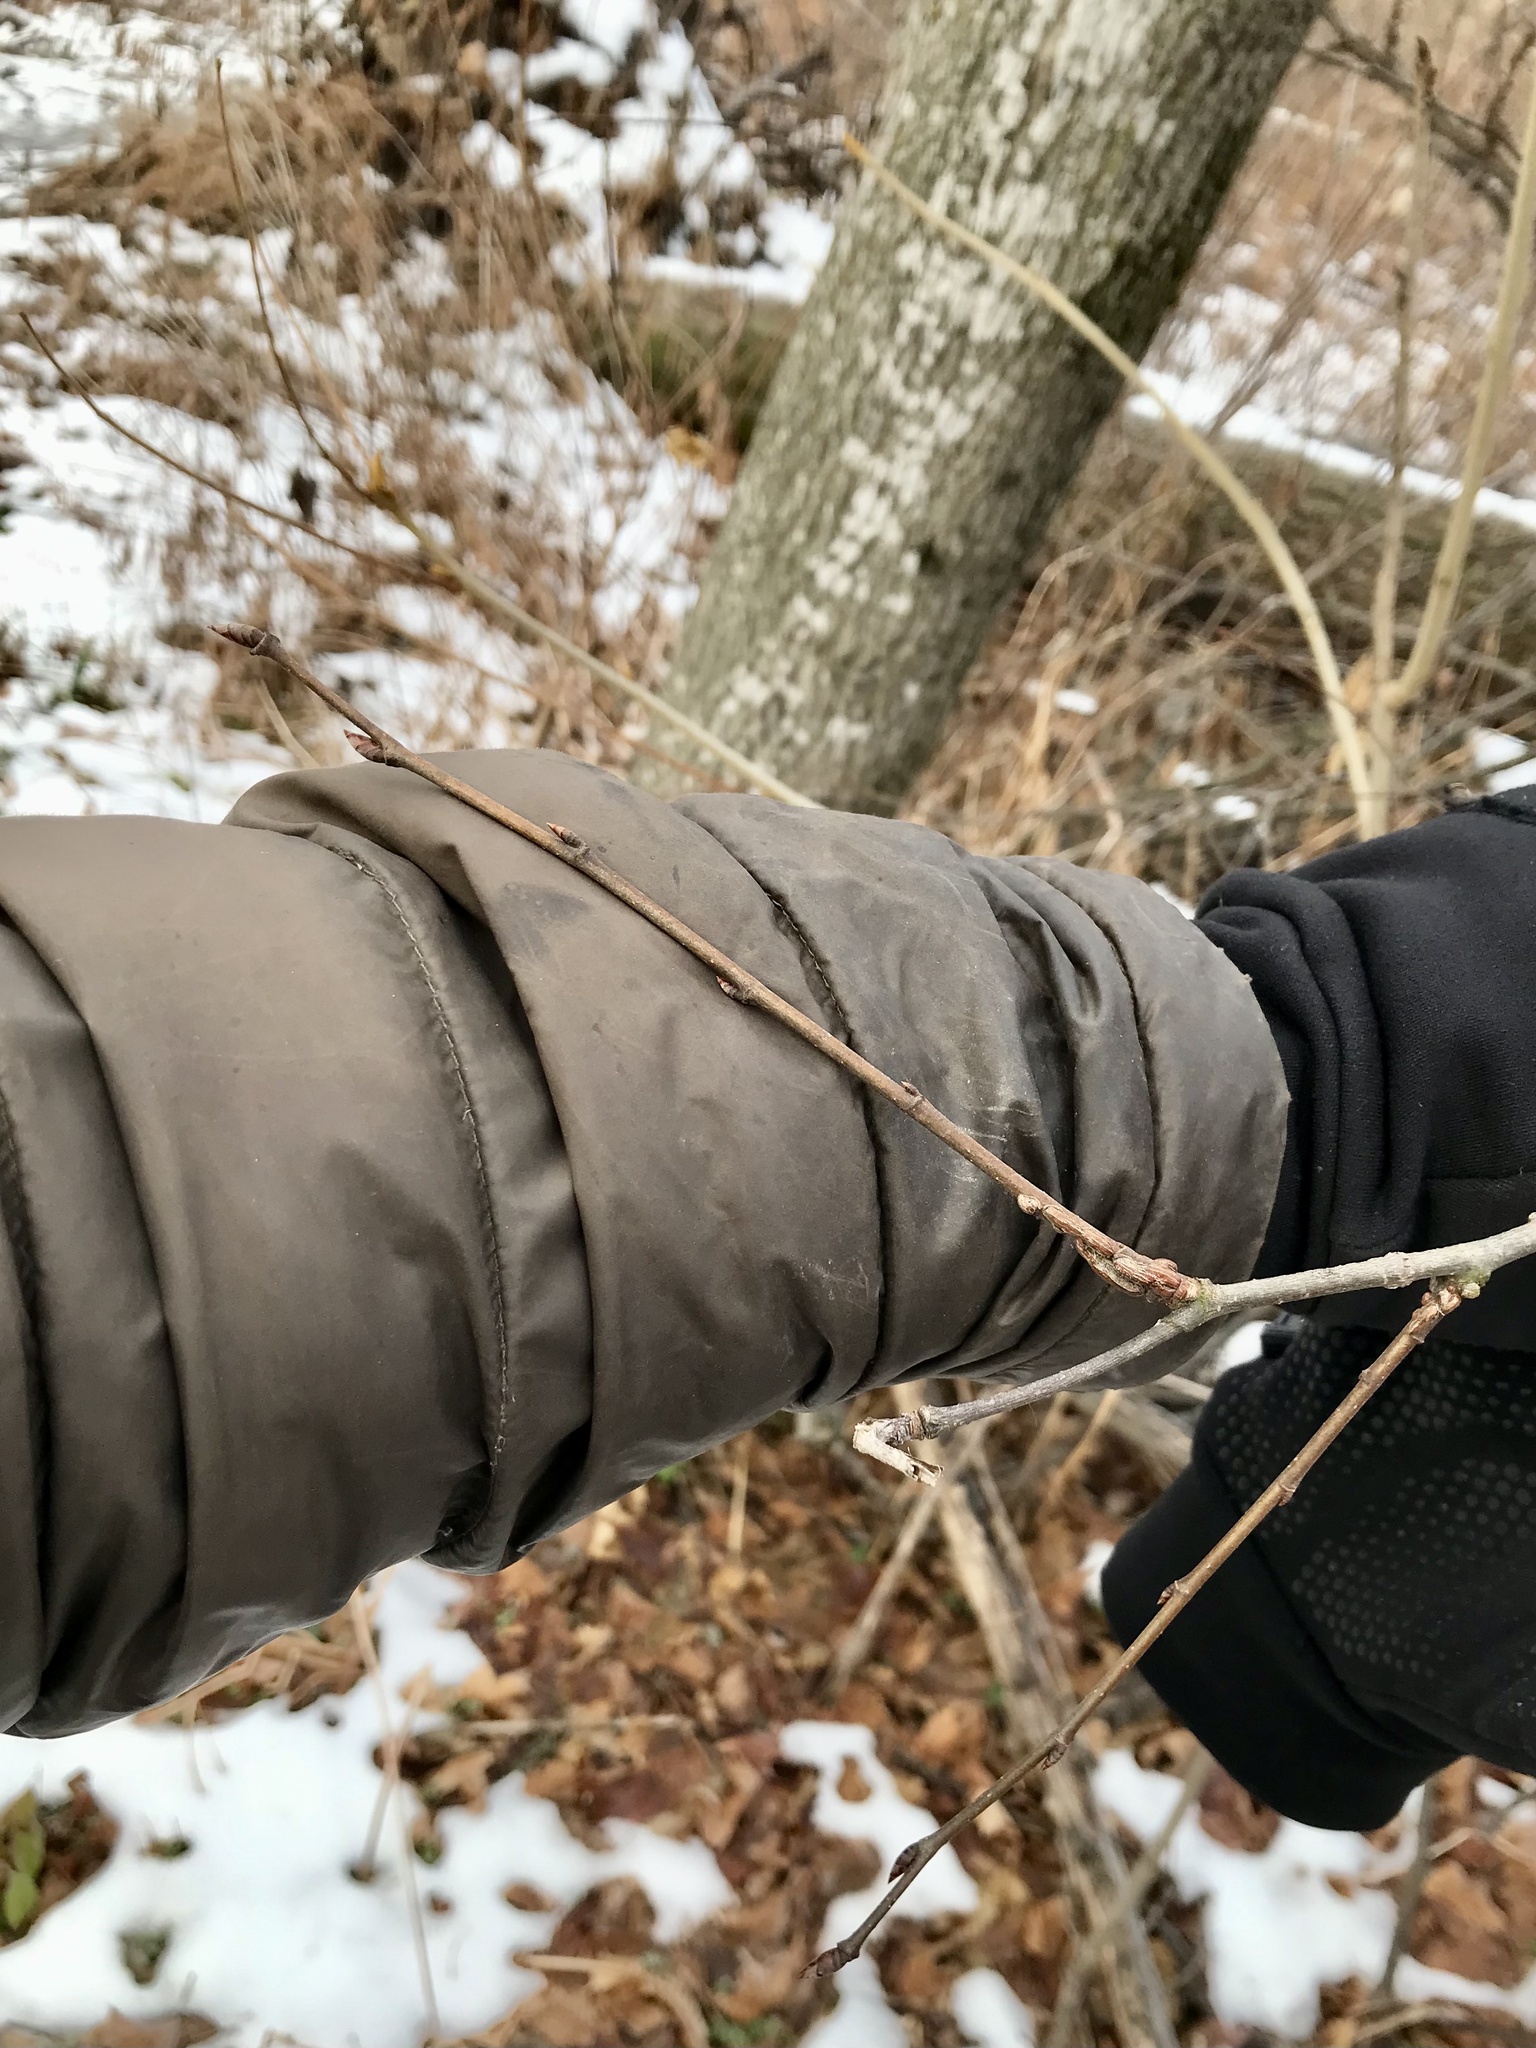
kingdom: Plantae
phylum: Tracheophyta
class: Magnoliopsida
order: Rosales
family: Ulmaceae
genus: Ulmus
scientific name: Ulmus thomasii
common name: Rock elm
